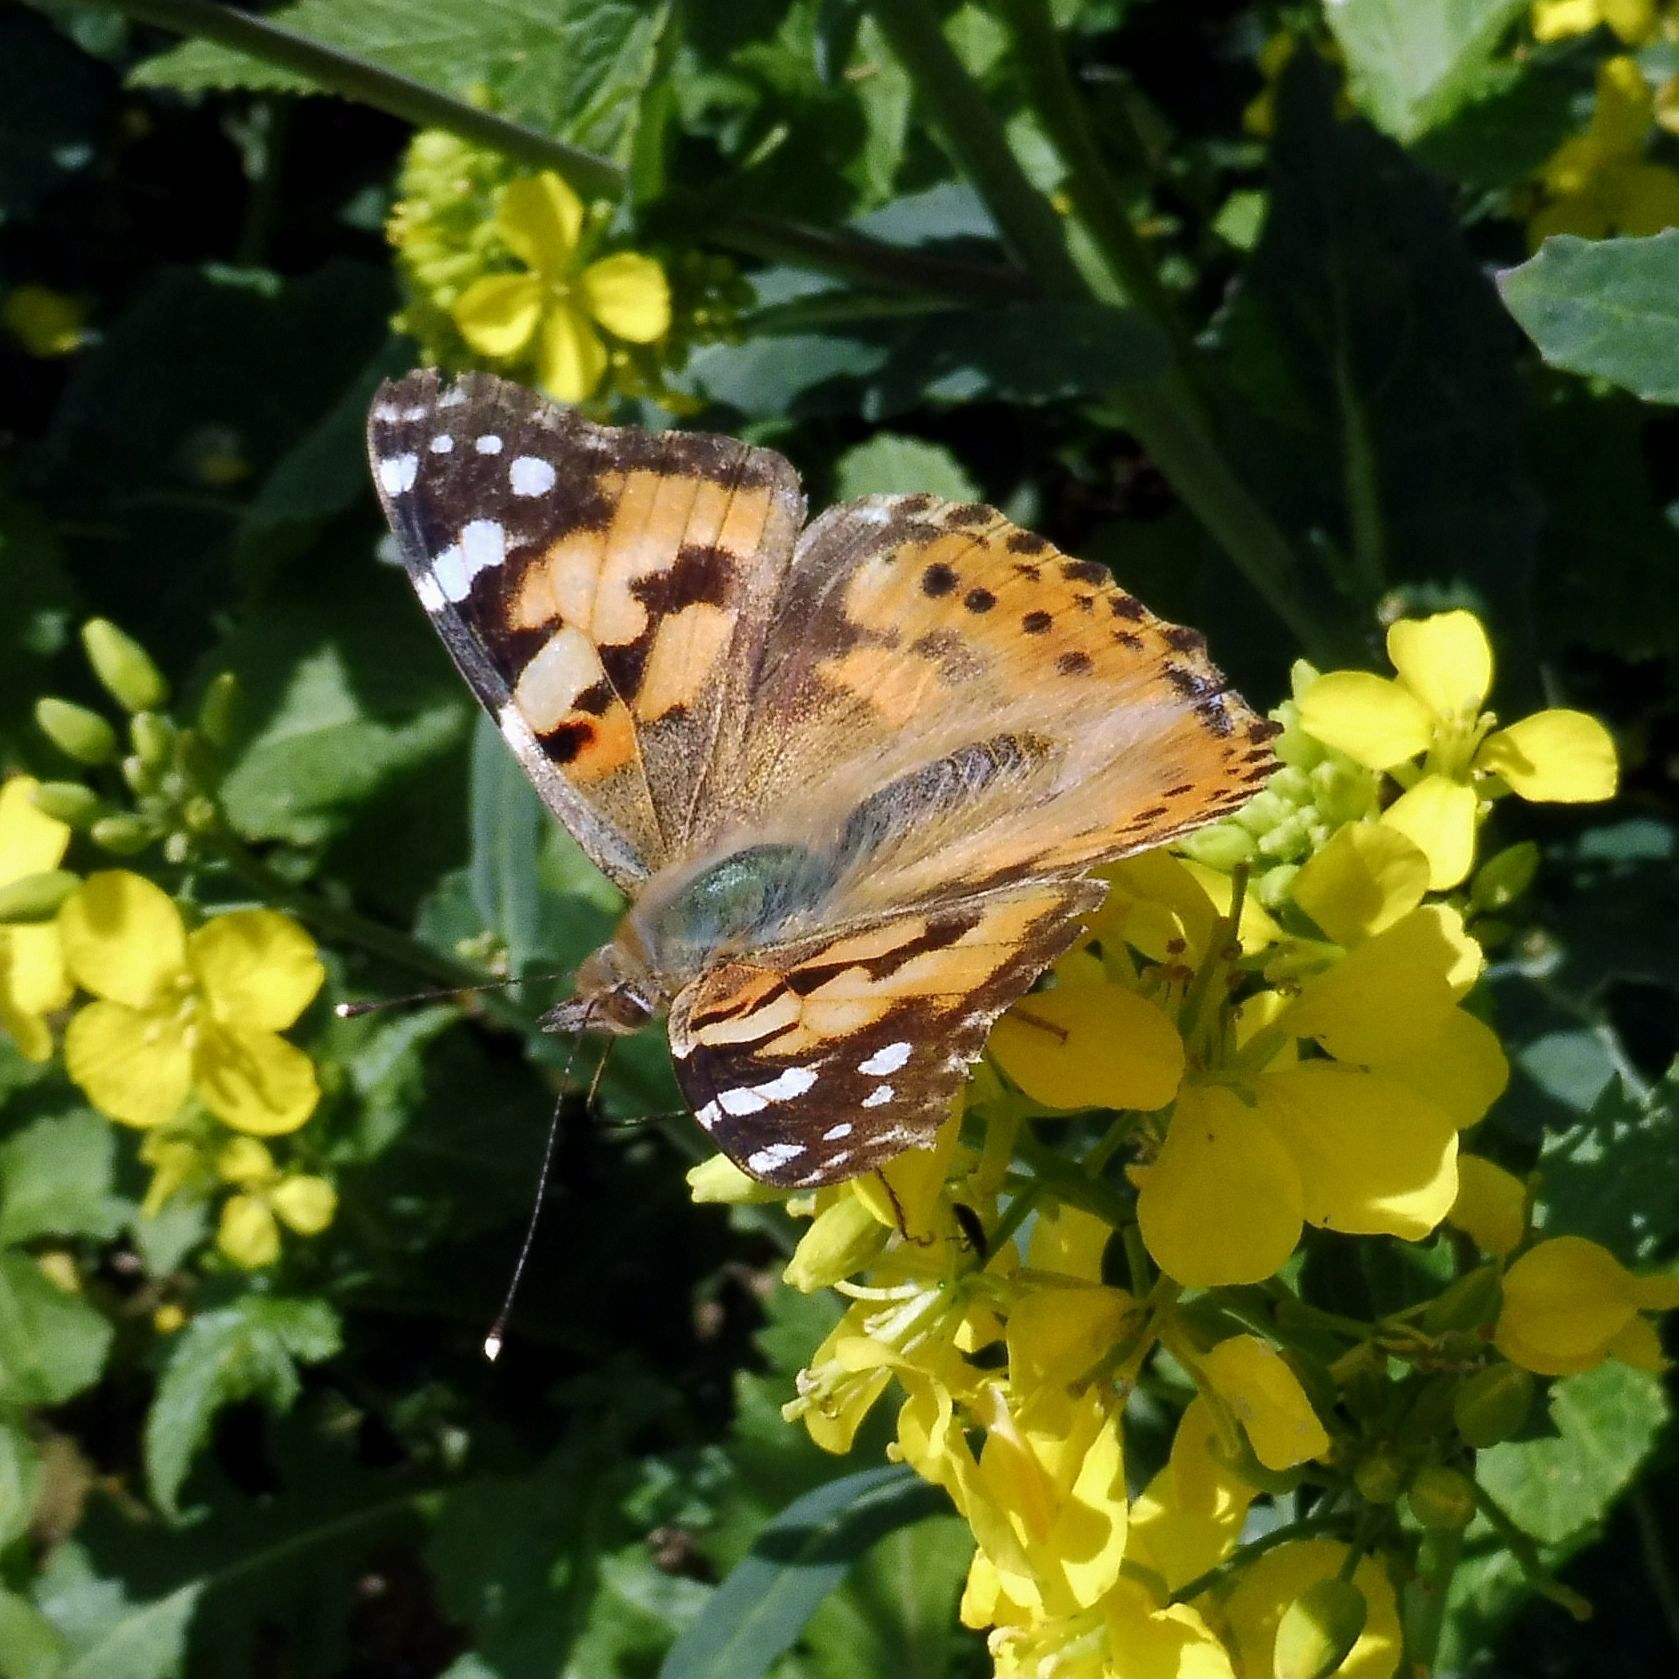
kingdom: Animalia
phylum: Arthropoda
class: Insecta
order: Lepidoptera
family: Nymphalidae
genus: Vanessa
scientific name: Vanessa cardui
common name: Painted lady
